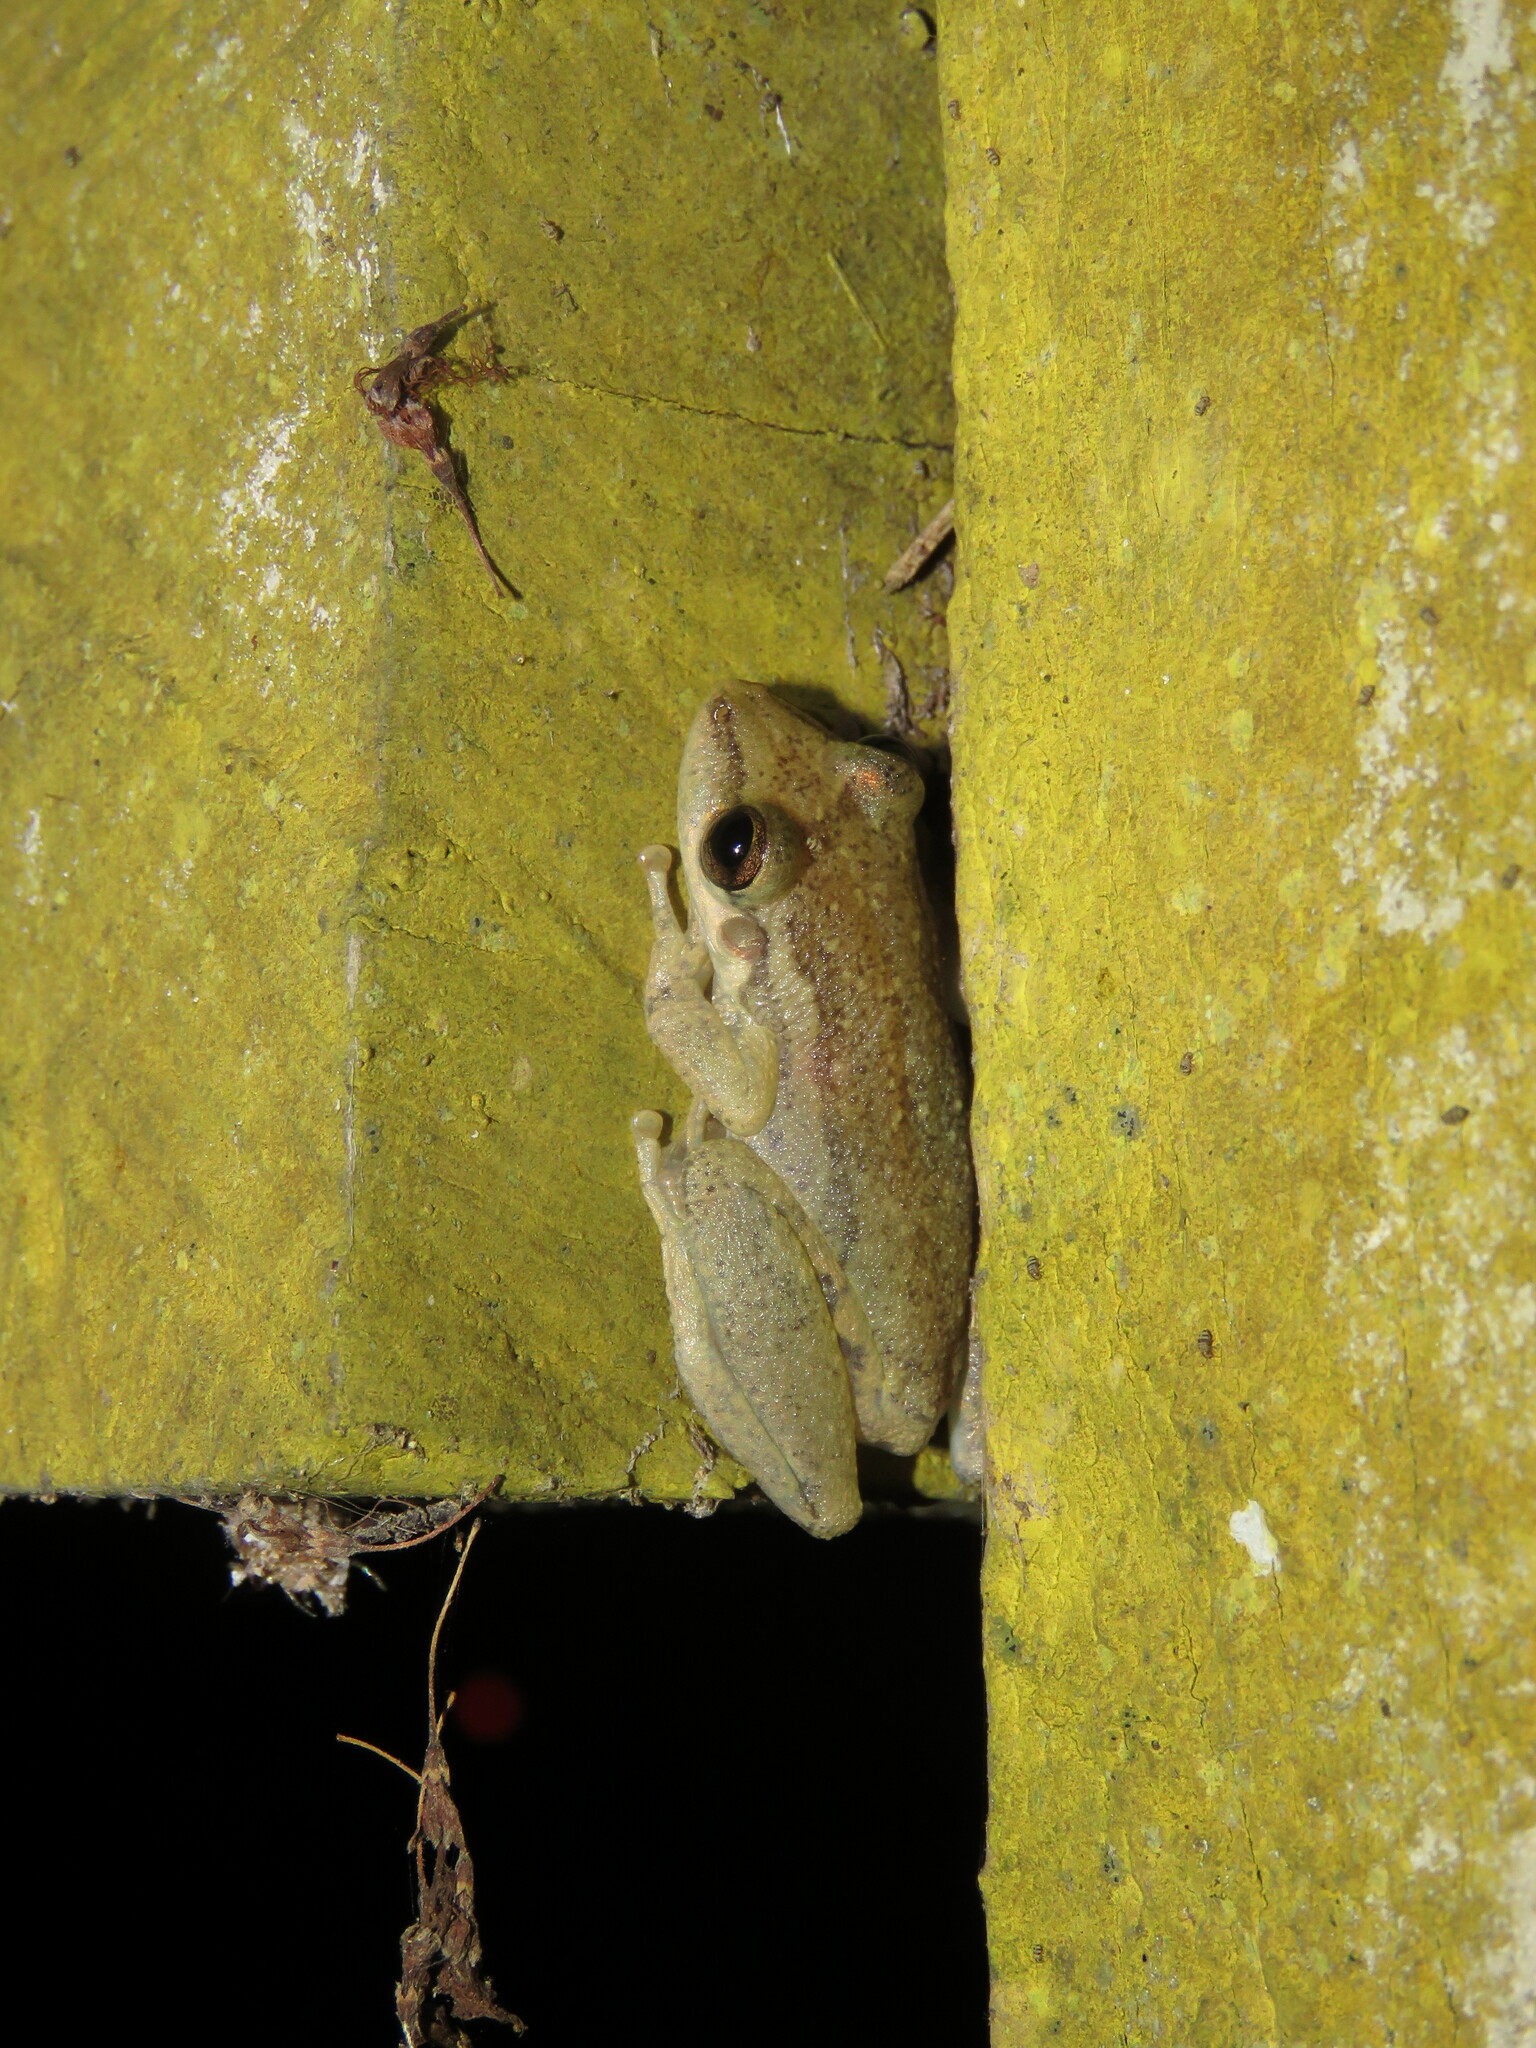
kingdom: Animalia
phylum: Chordata
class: Amphibia
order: Anura
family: Hylidae
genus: Scinax
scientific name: Scinax ruber
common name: Red snouted treefrog
